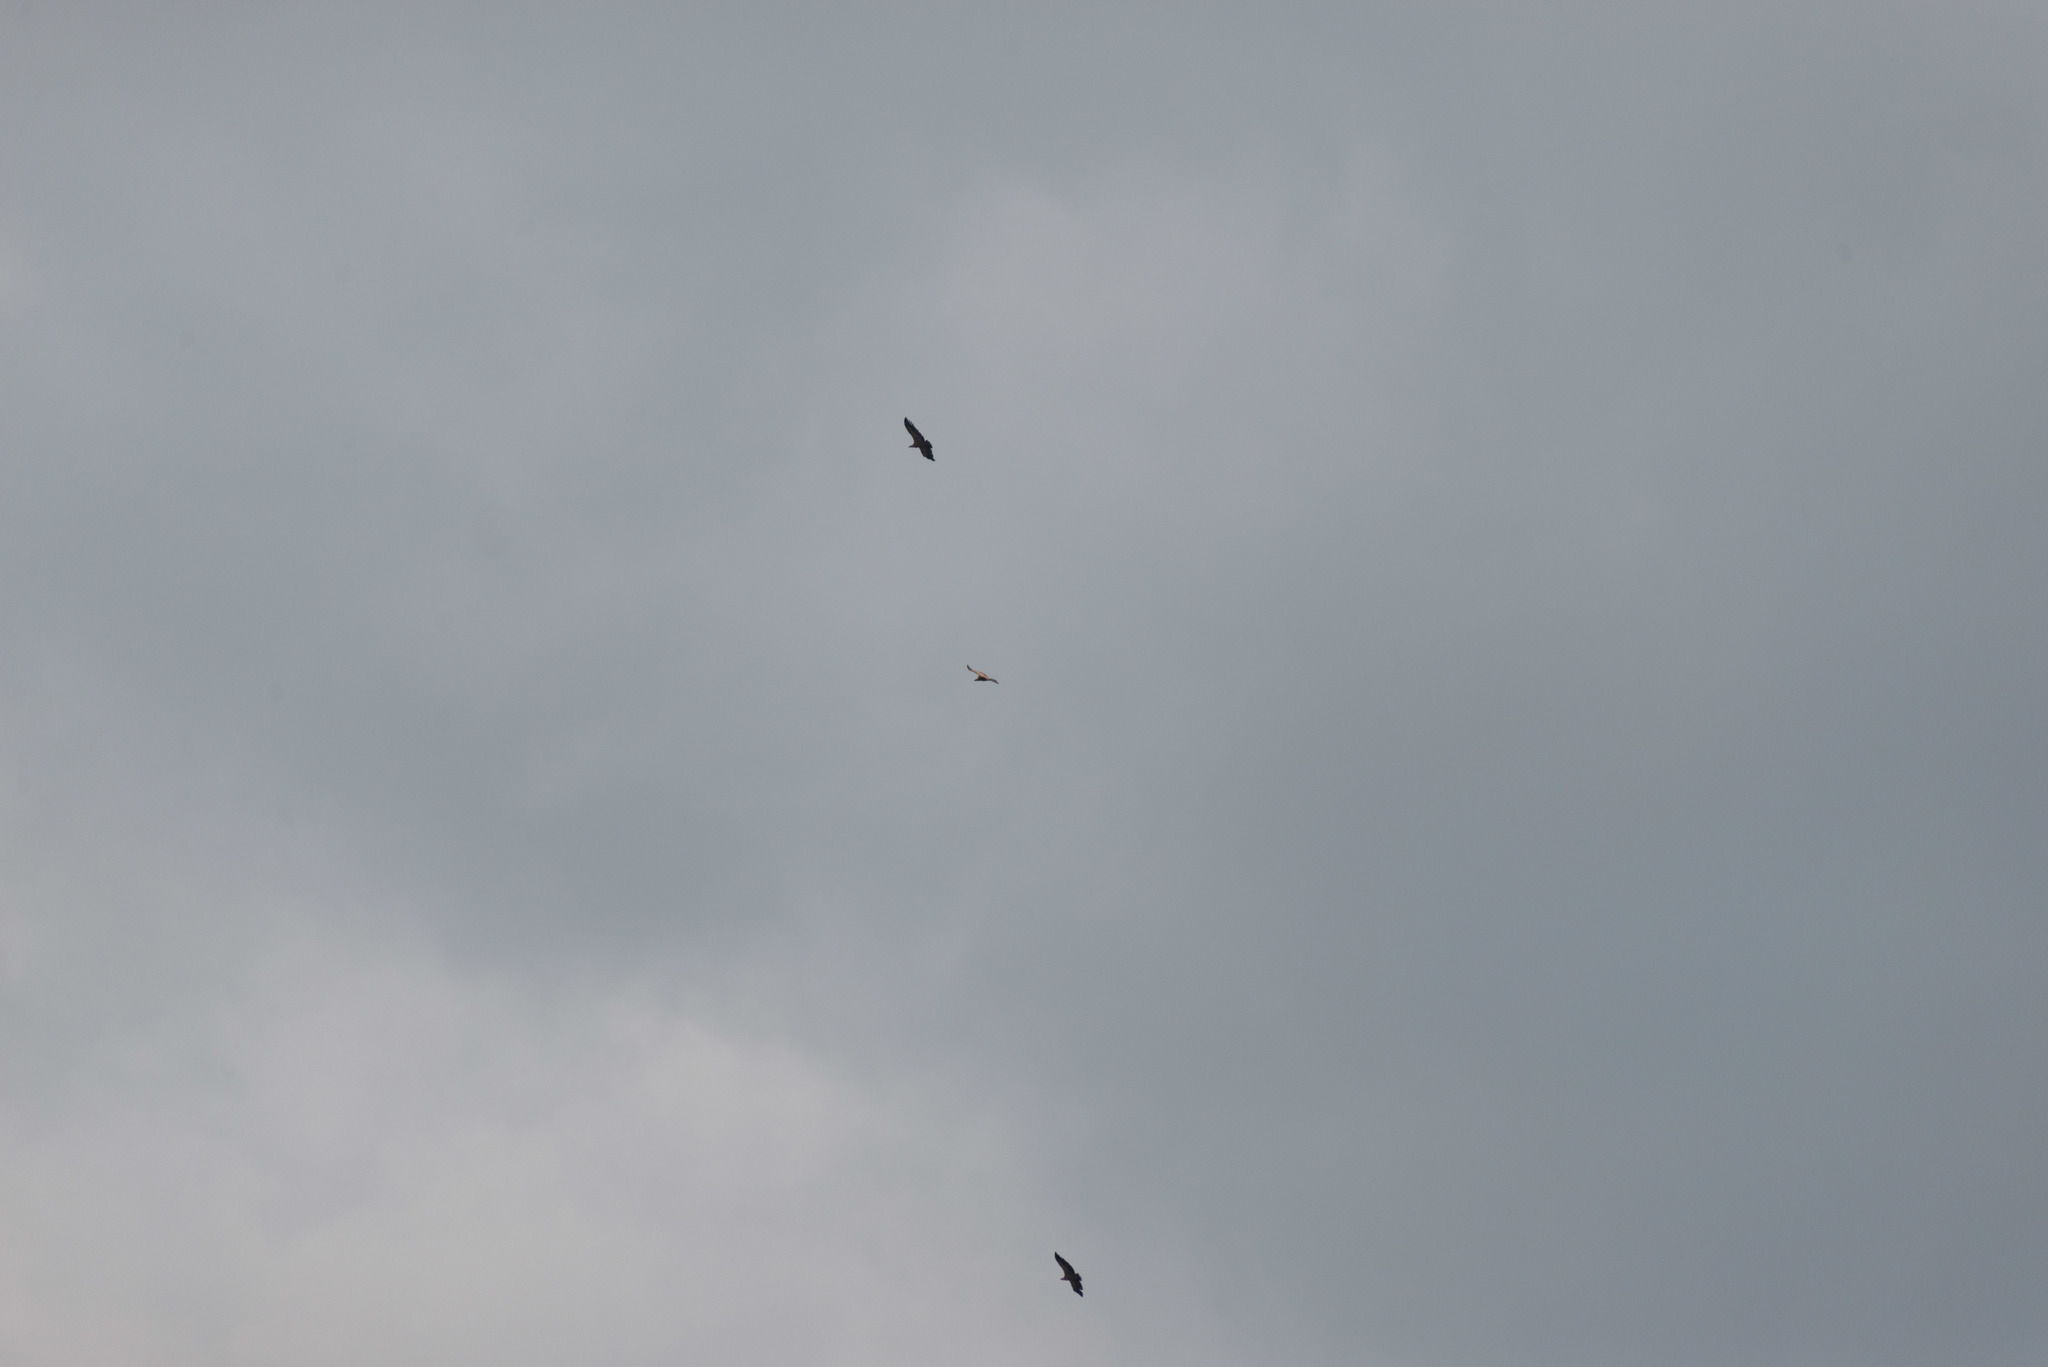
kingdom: Animalia
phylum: Chordata
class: Aves
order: Accipitriformes
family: Accipitridae
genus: Gyps
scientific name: Gyps fulvus
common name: Griffon vulture
